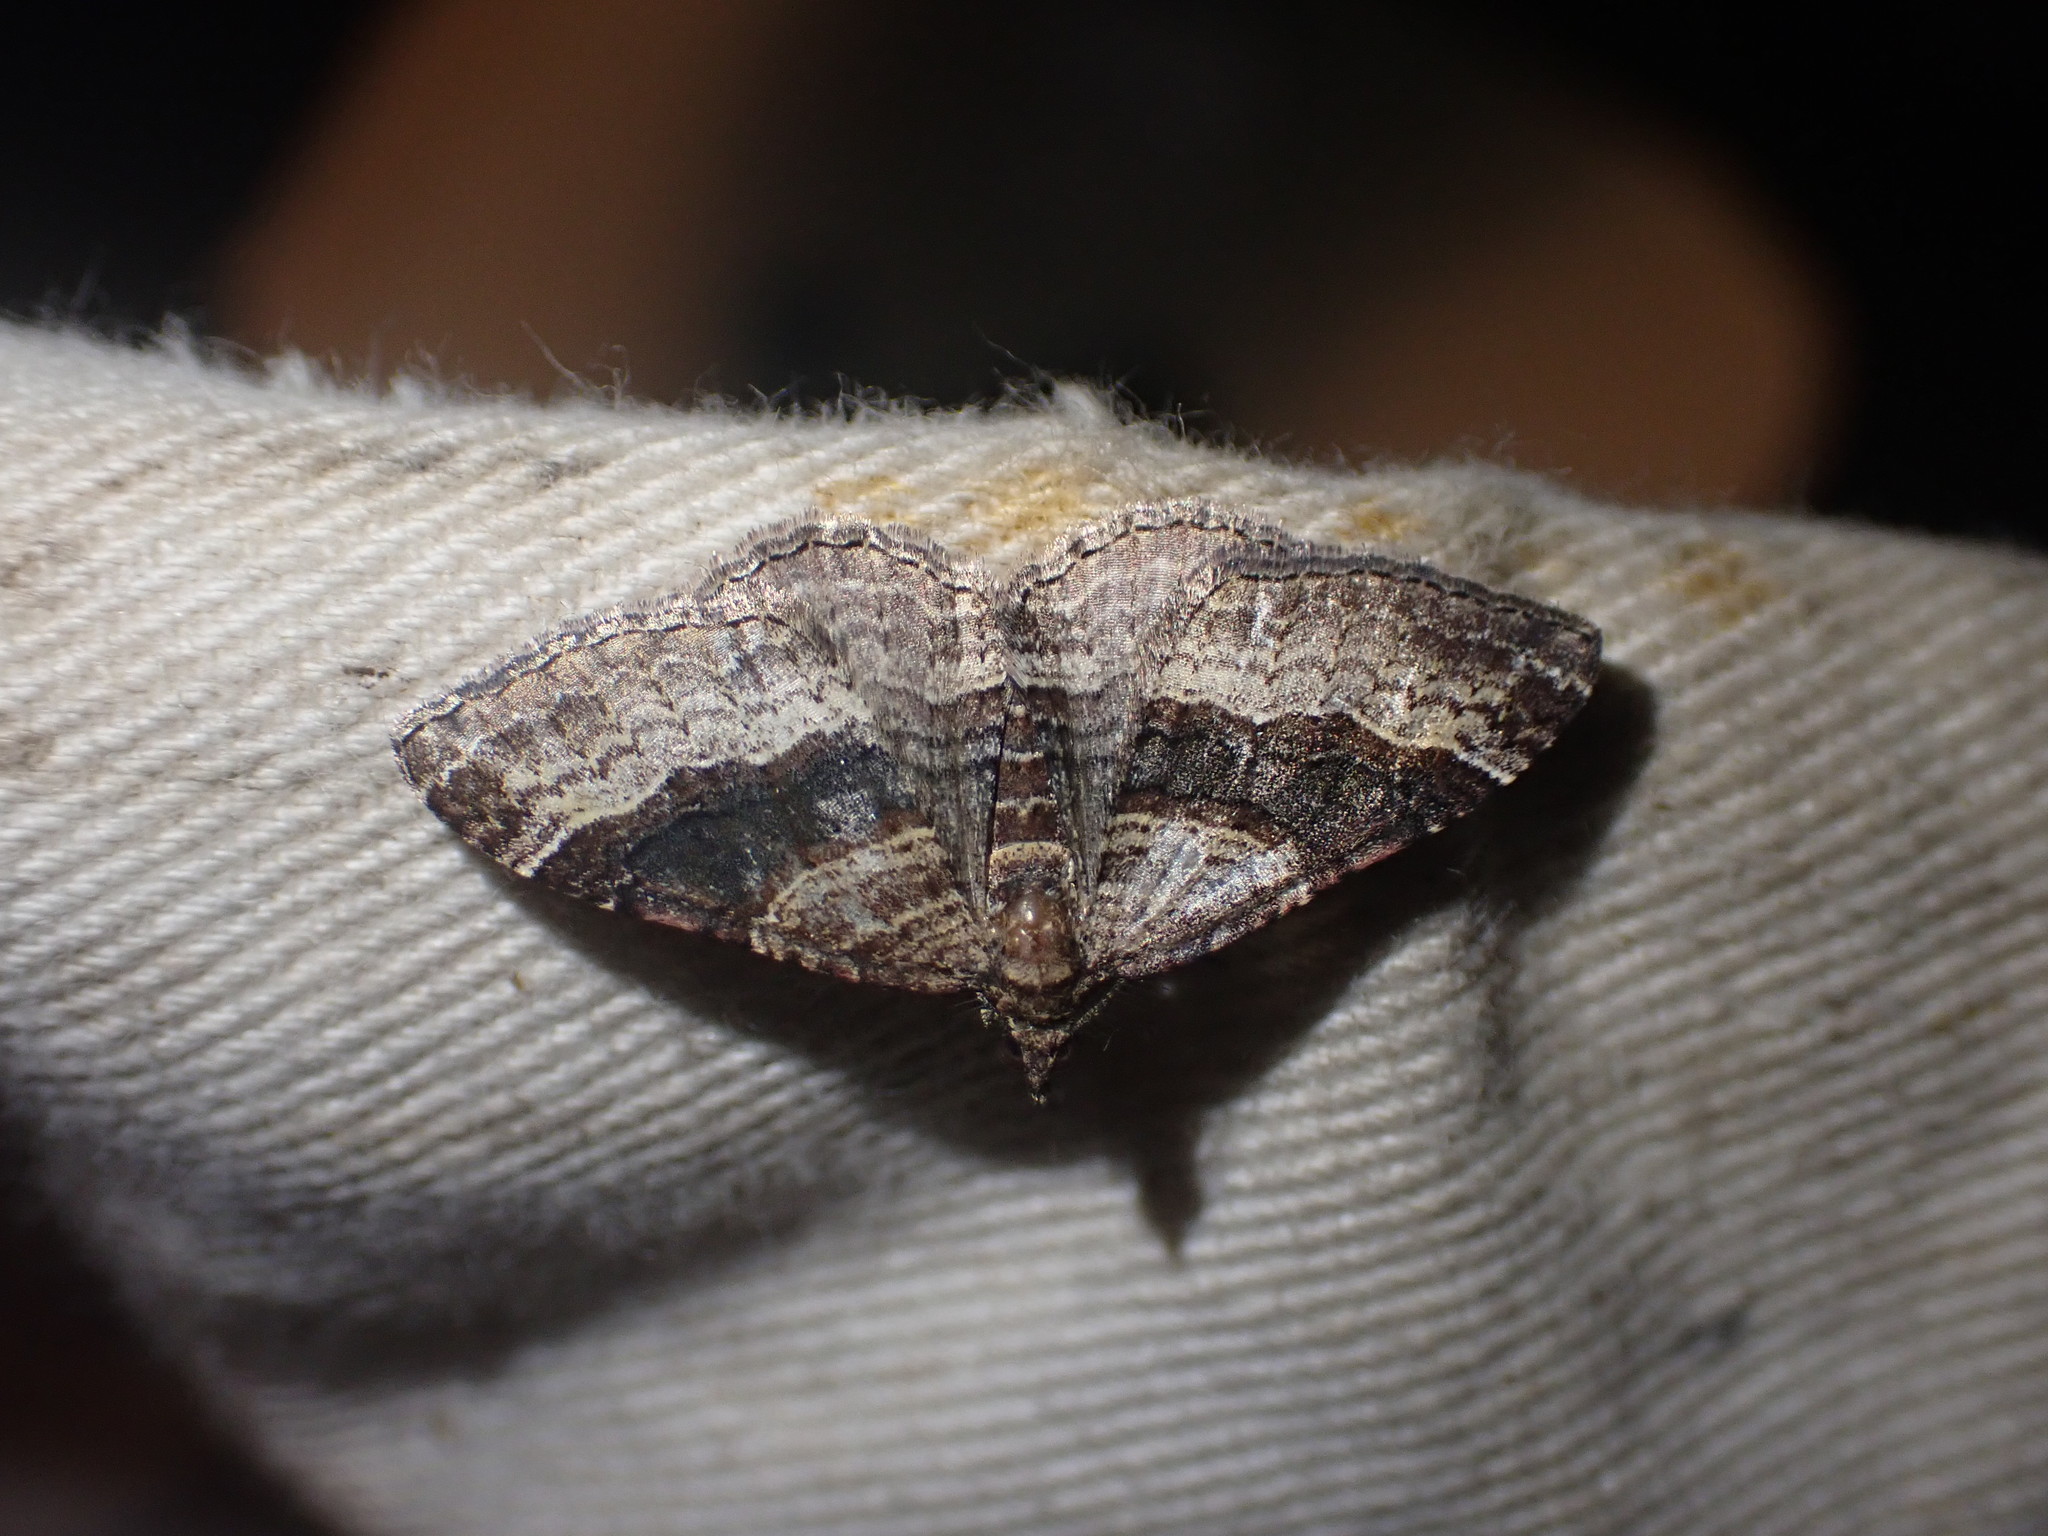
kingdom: Animalia
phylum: Arthropoda
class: Insecta
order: Lepidoptera
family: Geometridae
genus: Epyaxa
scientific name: Epyaxa lucidata
